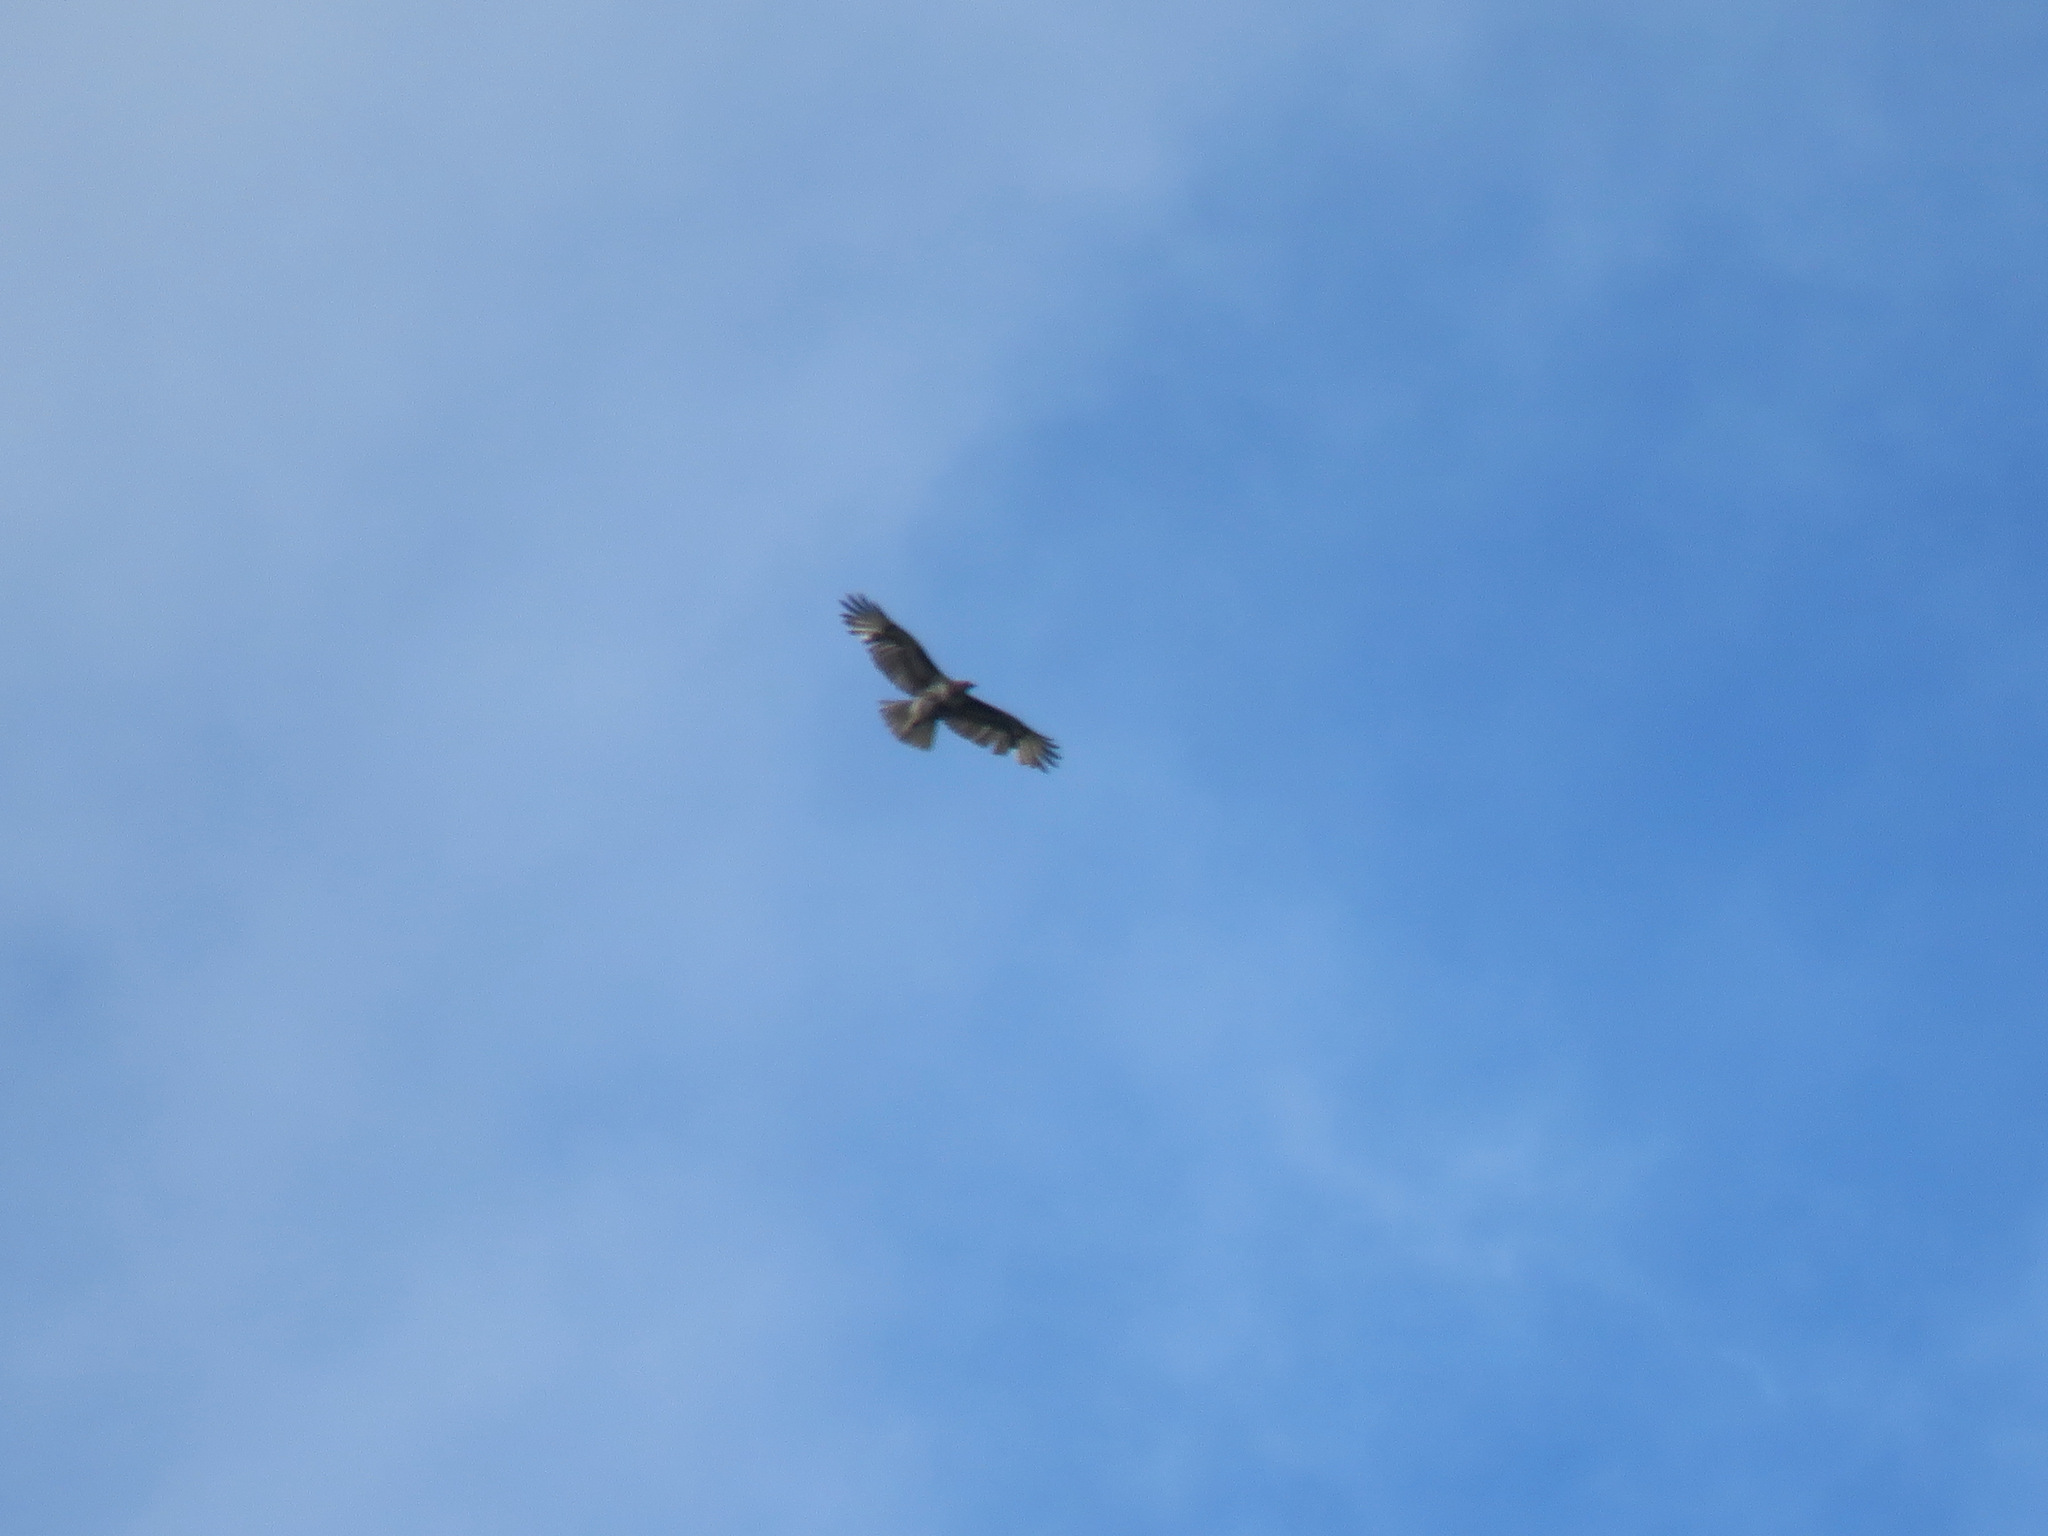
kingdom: Animalia
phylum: Chordata
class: Aves
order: Accipitriformes
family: Accipitridae
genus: Buteo
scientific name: Buteo jamaicensis
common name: Red-tailed hawk
